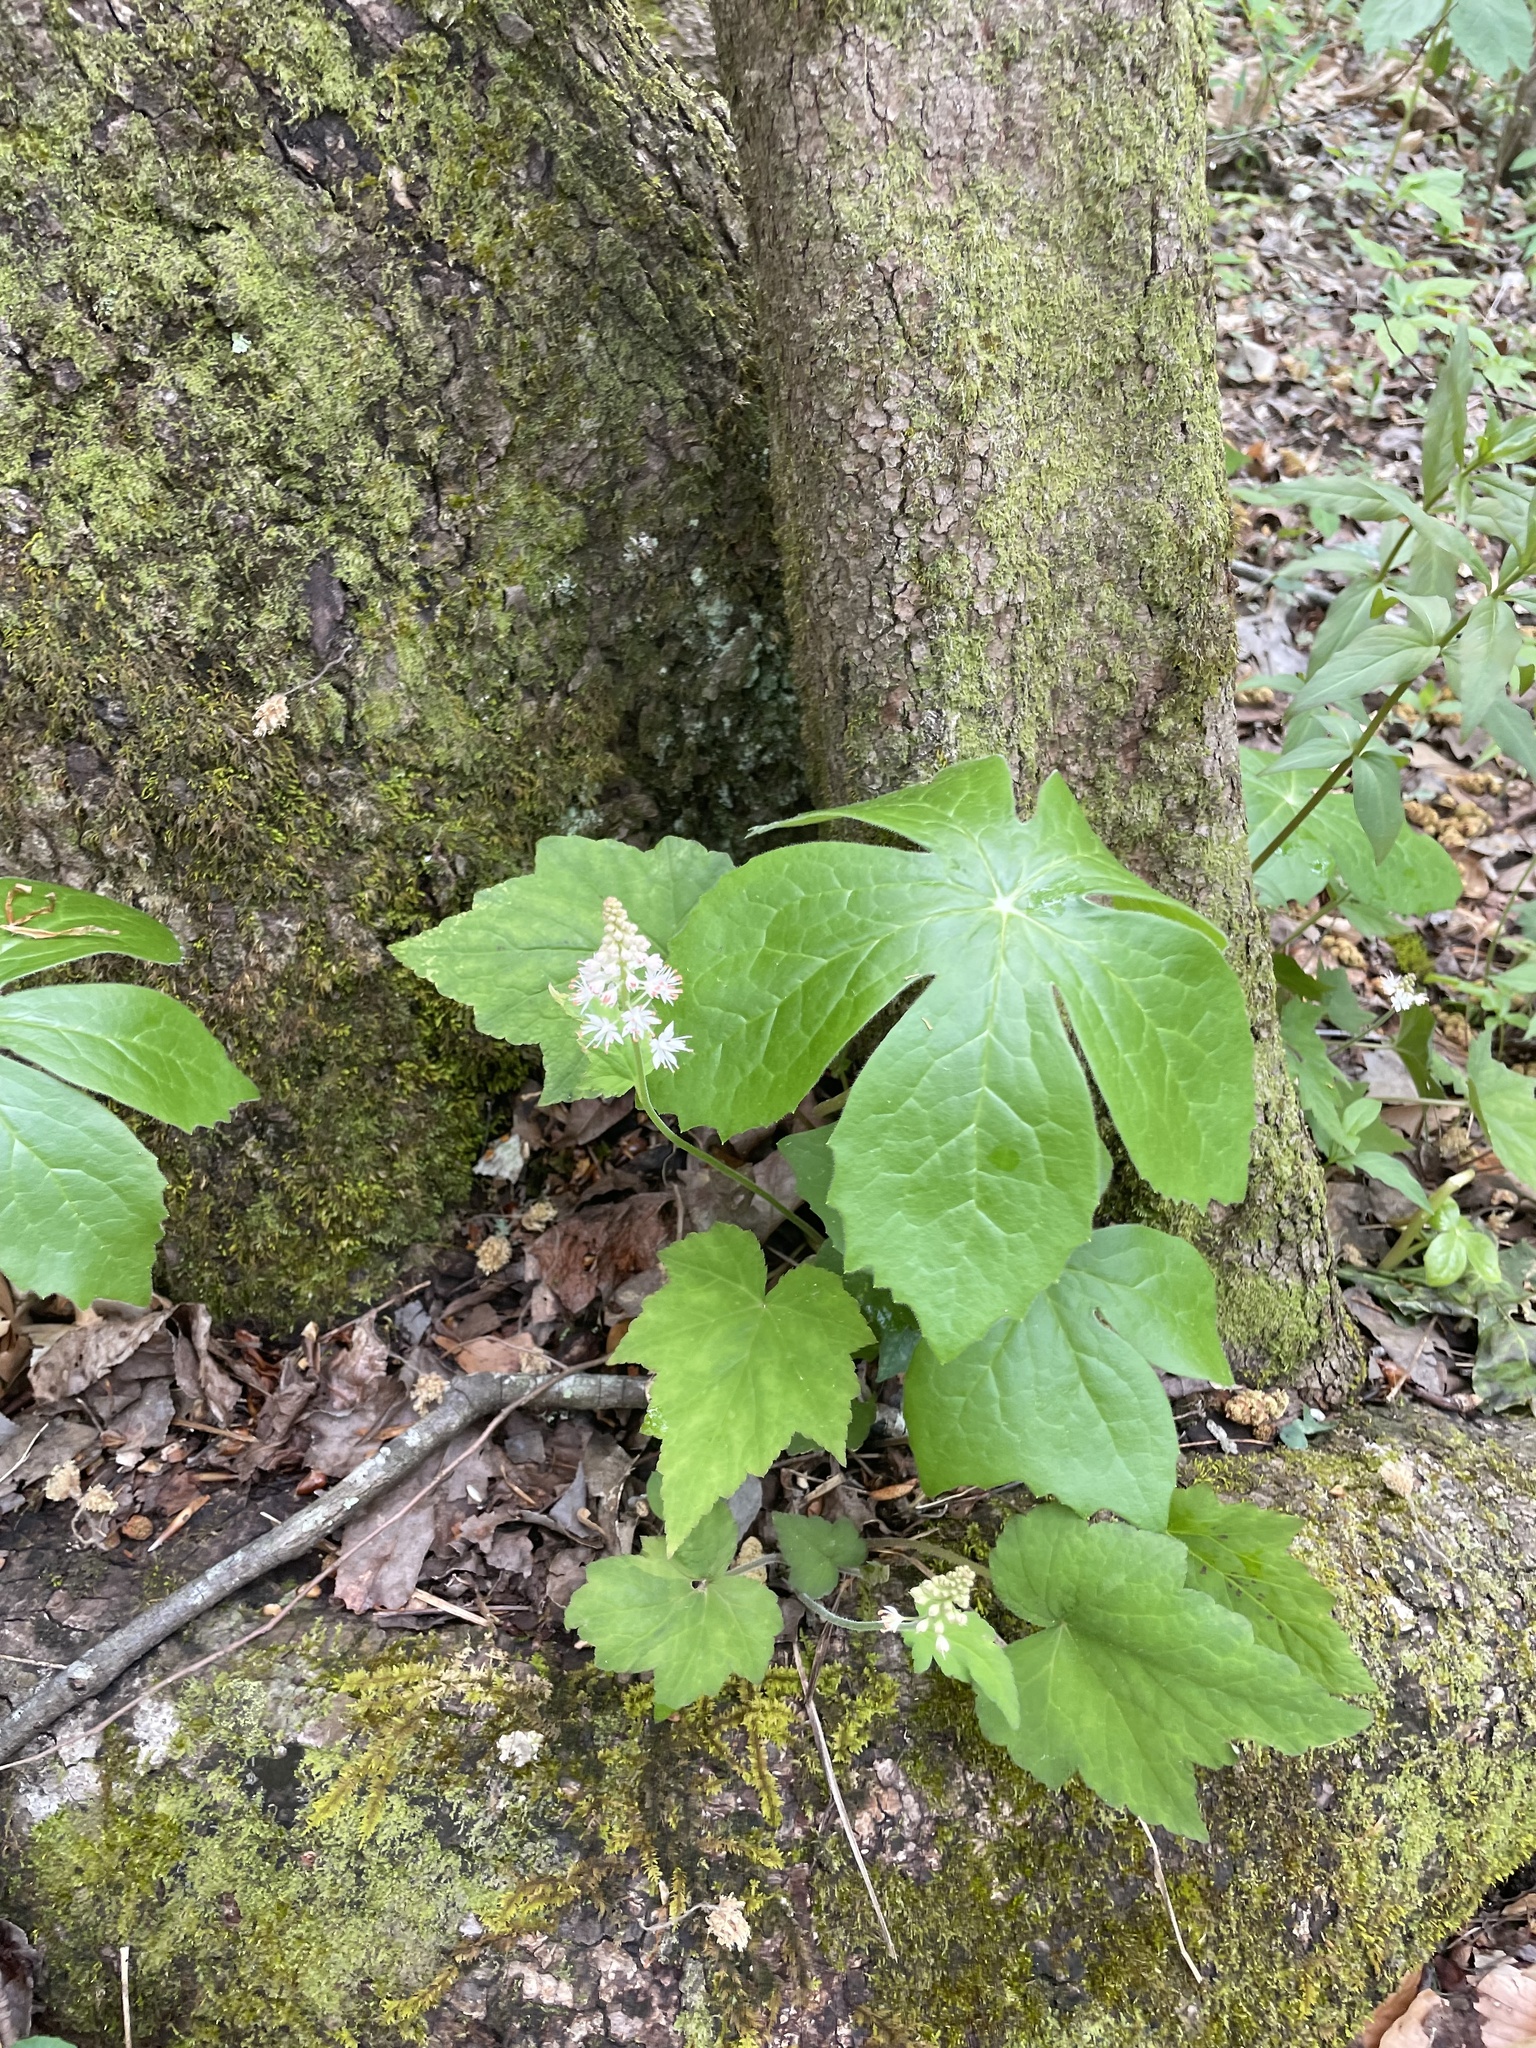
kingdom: Plantae
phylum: Tracheophyta
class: Magnoliopsida
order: Ranunculales
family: Berberidaceae
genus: Podophyllum
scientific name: Podophyllum peltatum
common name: Wild mandrake
